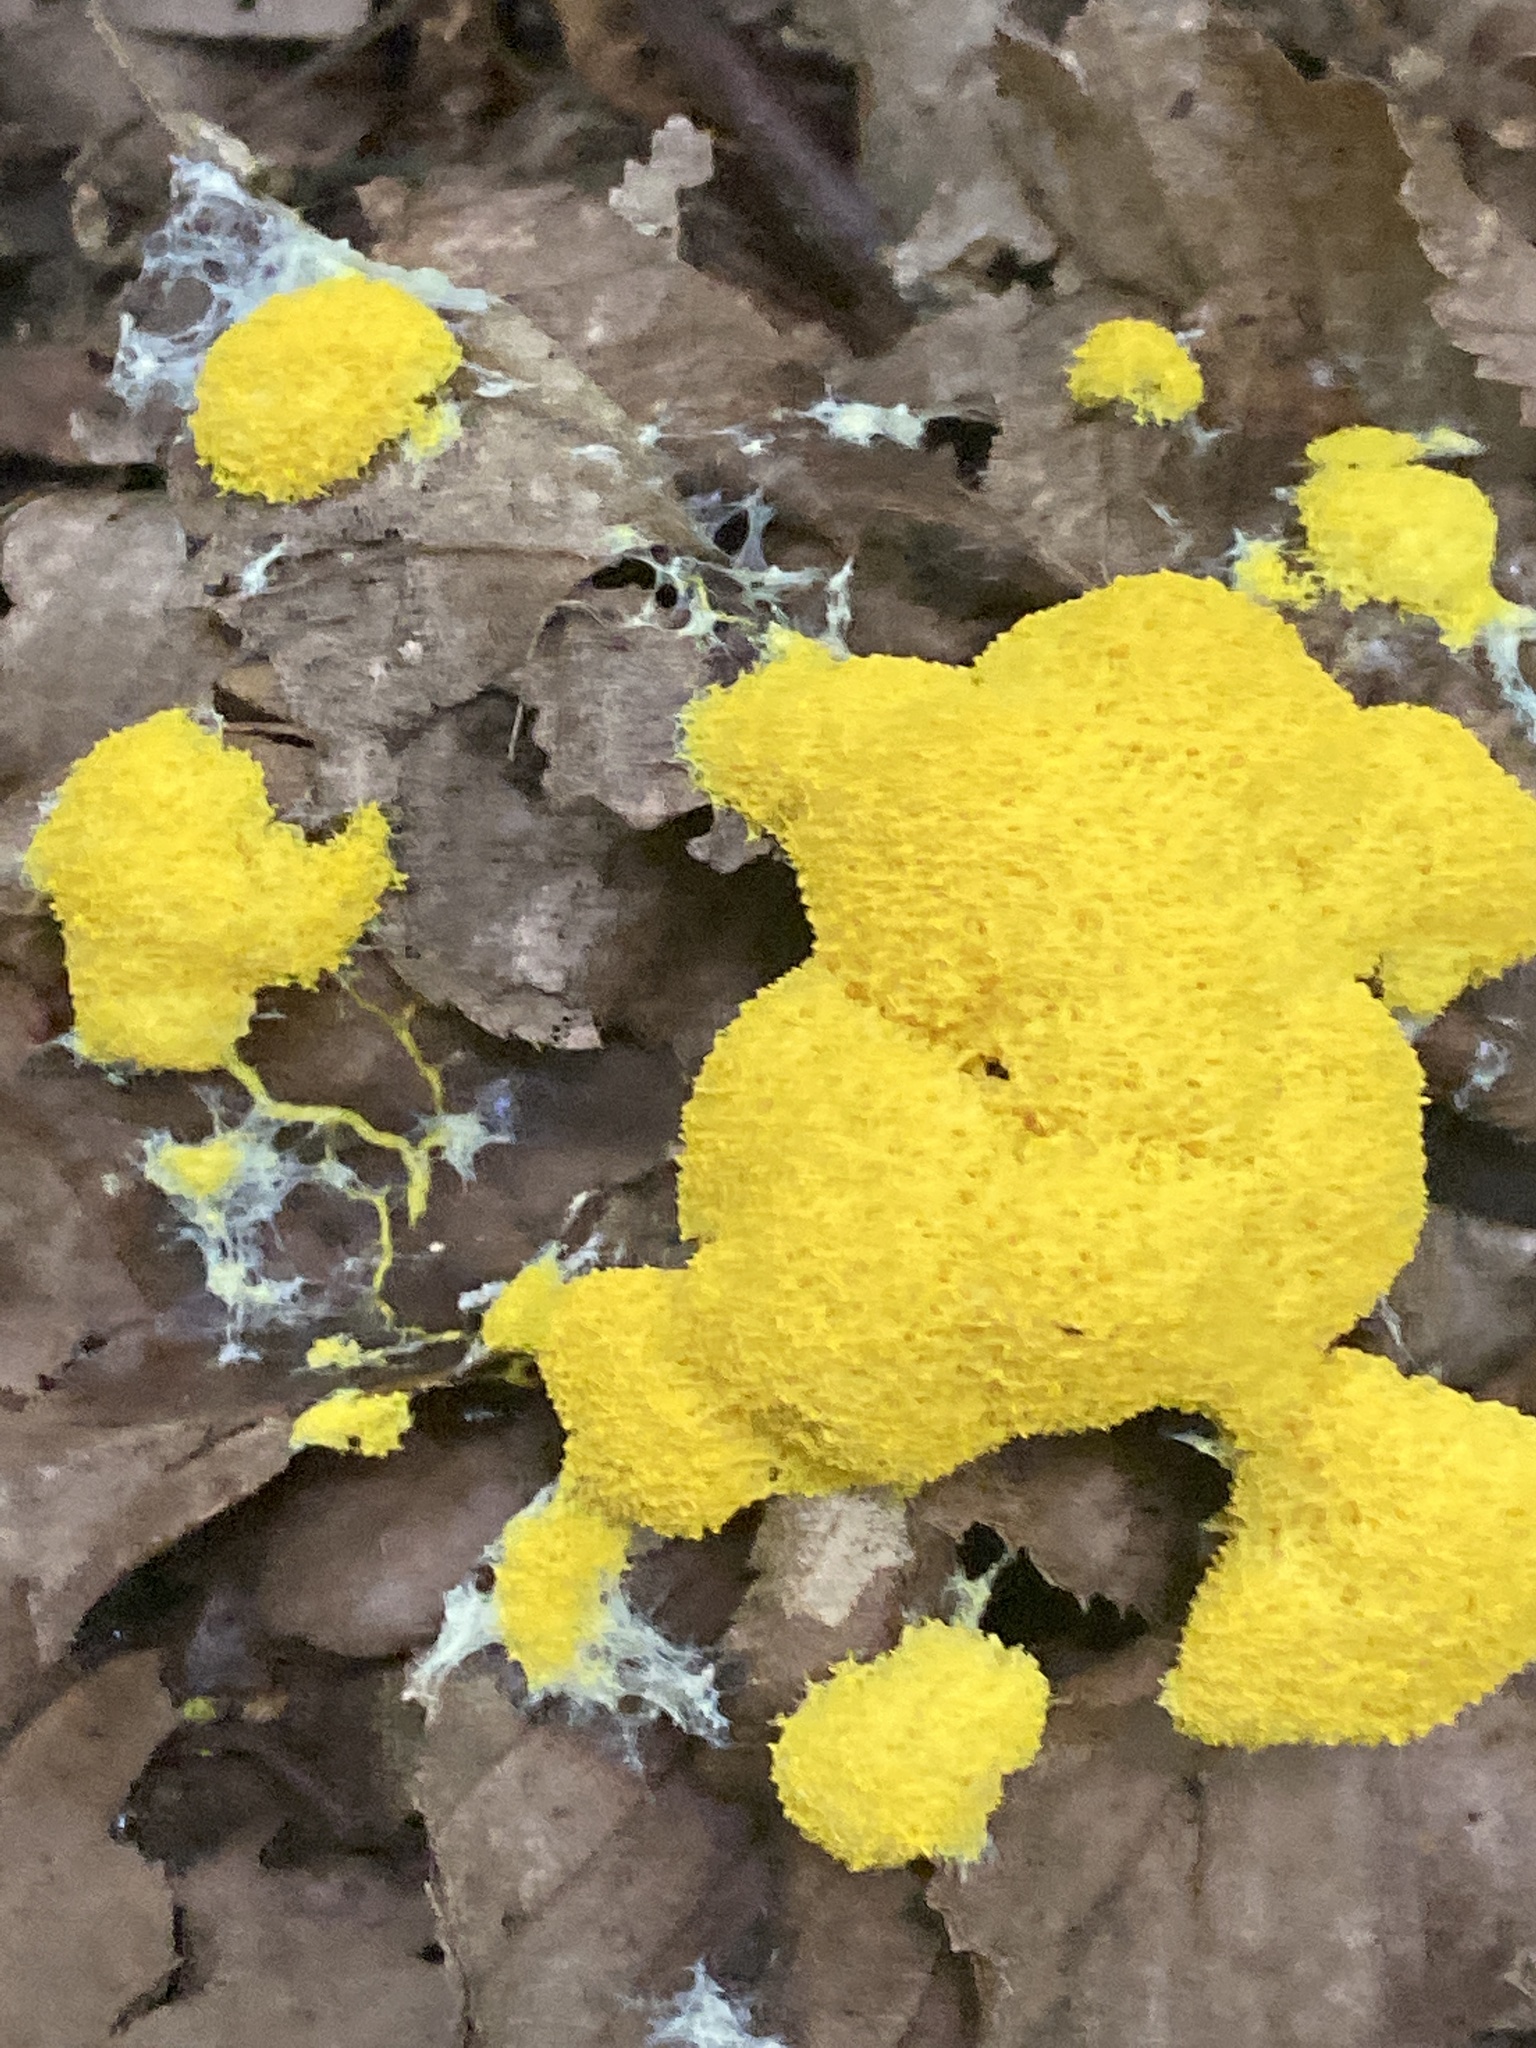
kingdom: Protozoa
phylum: Mycetozoa
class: Myxomycetes
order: Physarales
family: Physaraceae
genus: Fuligo
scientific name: Fuligo septica
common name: Dog vomit slime mold
